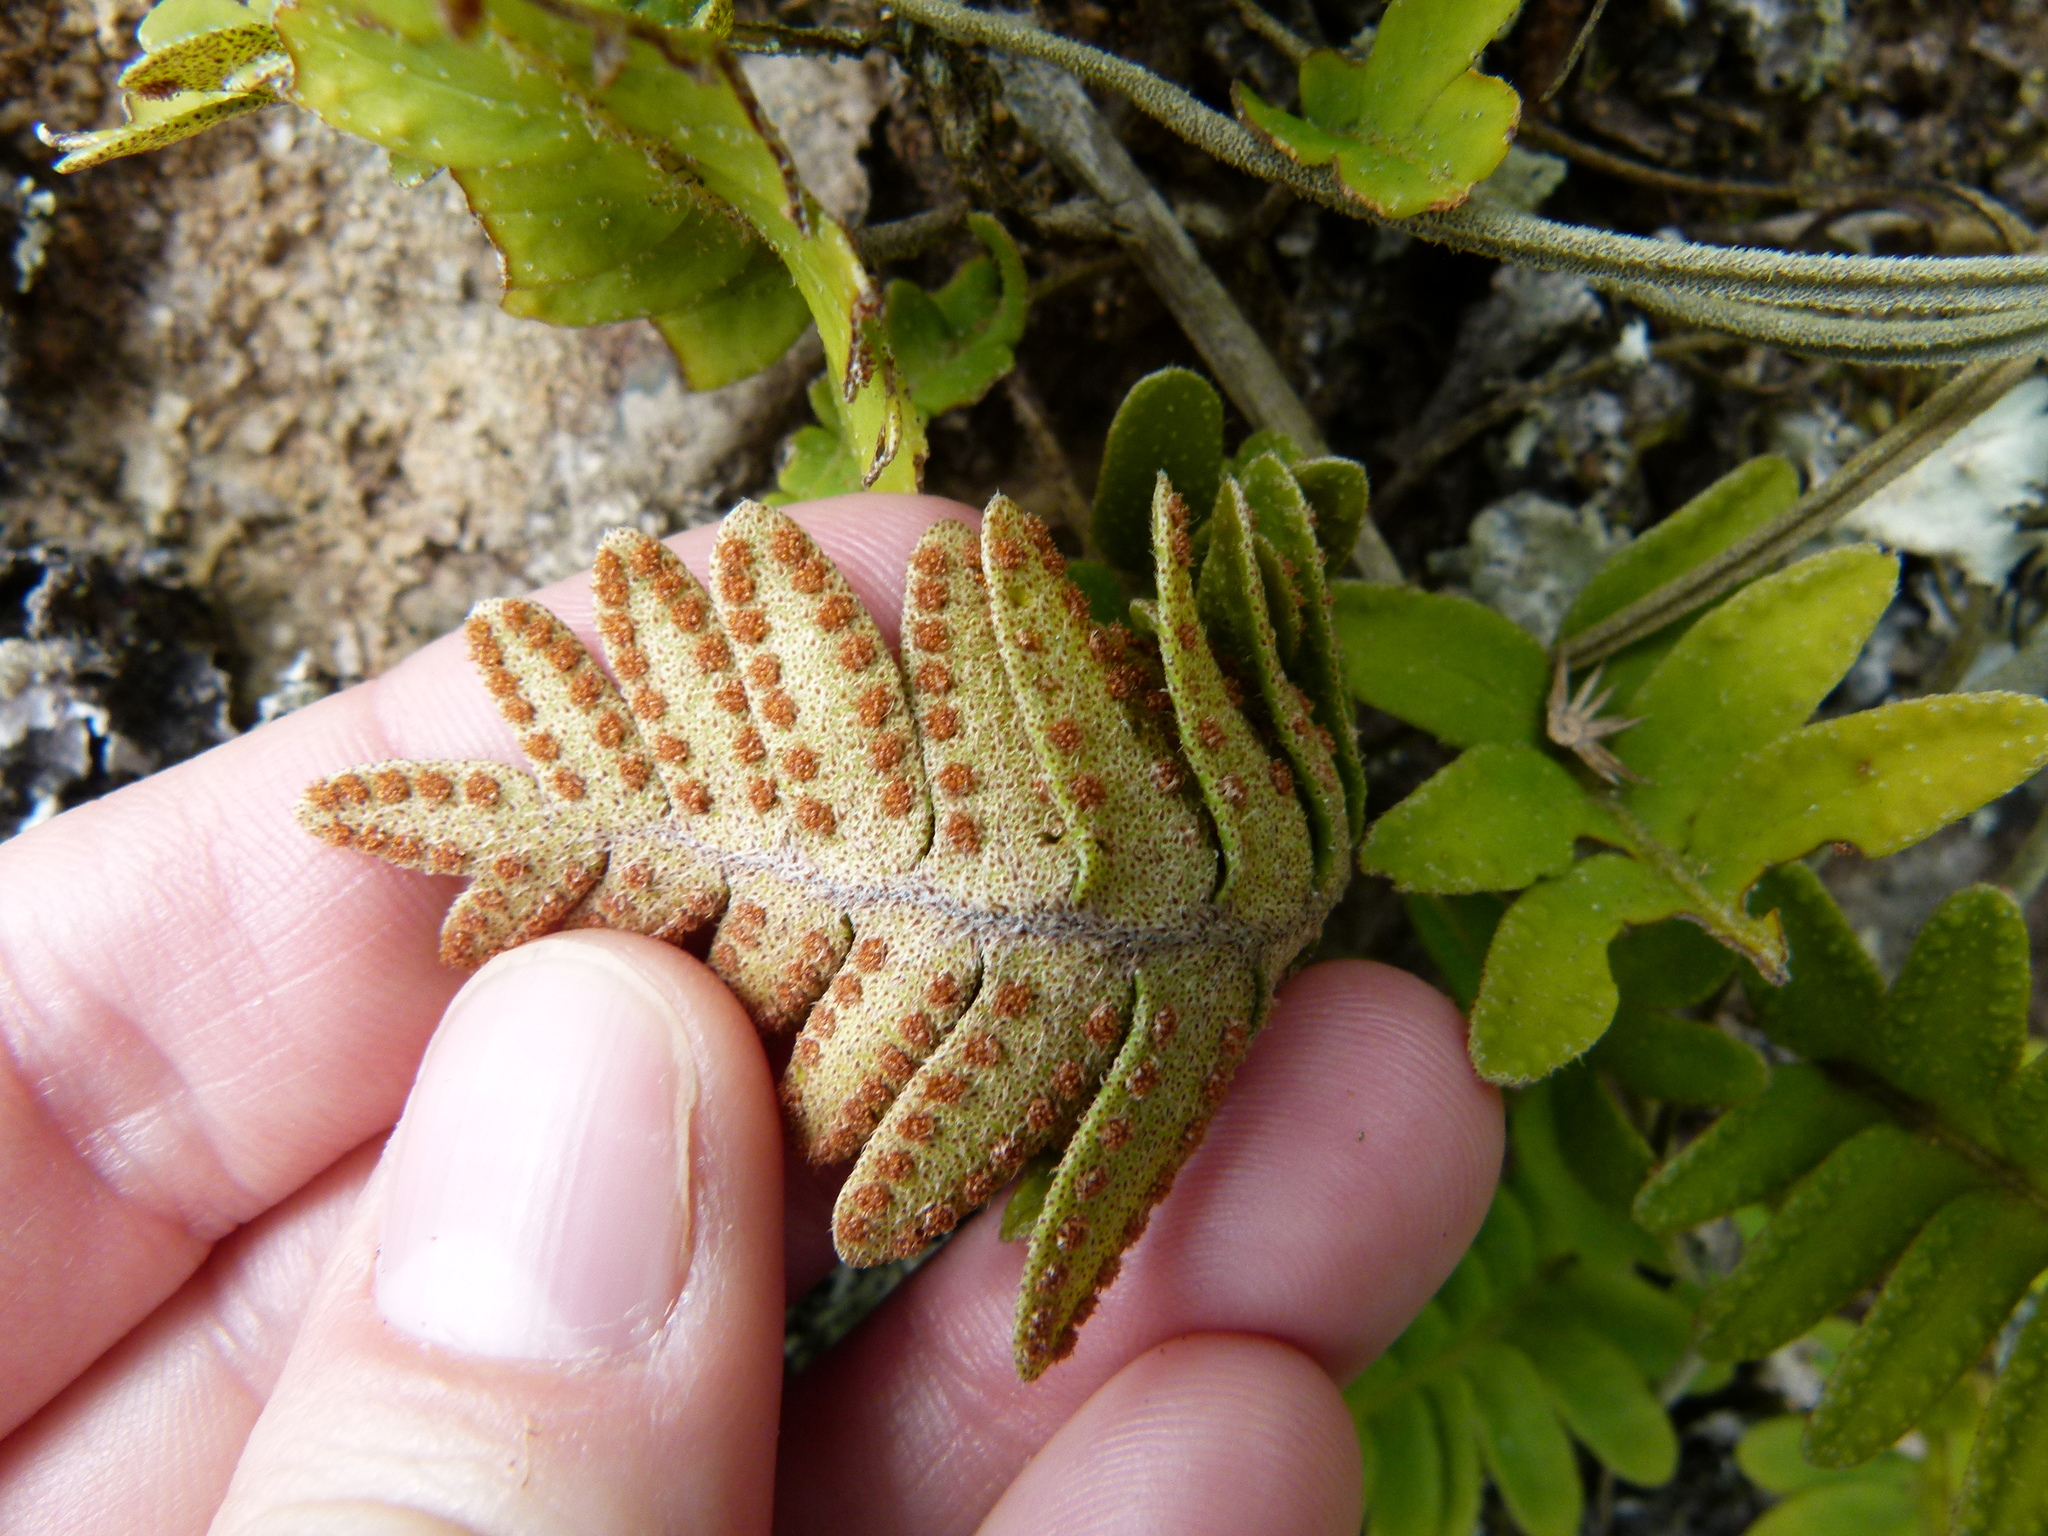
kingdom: Plantae
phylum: Tracheophyta
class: Polypodiopsida
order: Polypodiales
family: Polypodiaceae
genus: Pleopeltis
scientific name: Pleopeltis polypodioides
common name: Resurrection fern
